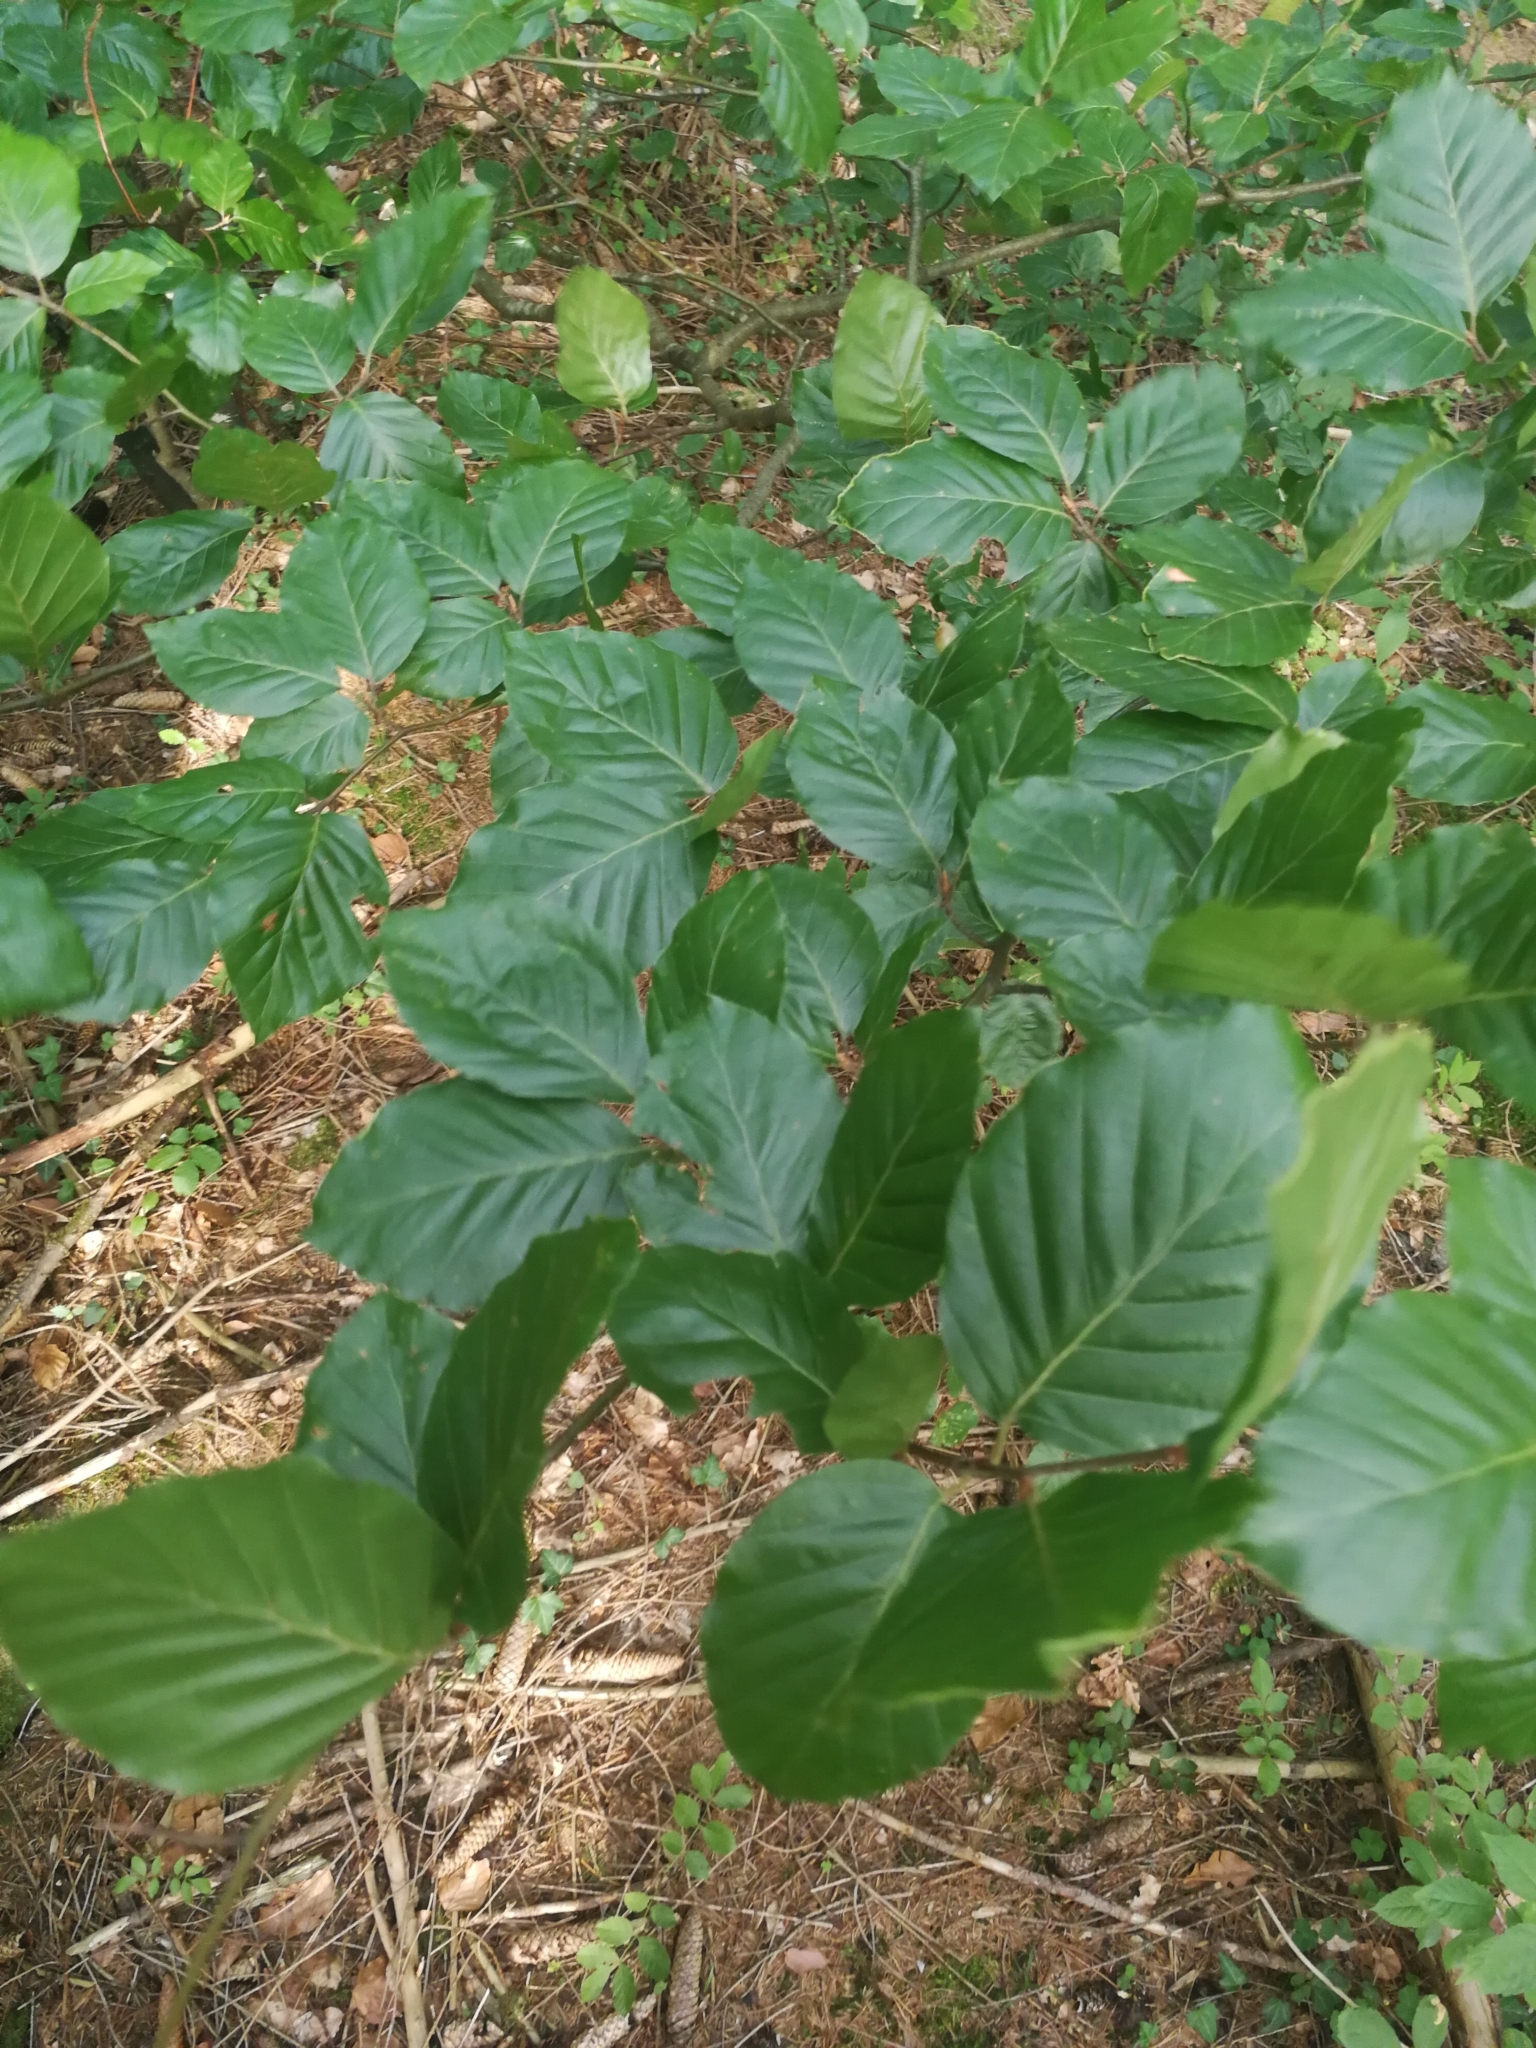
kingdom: Plantae
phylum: Tracheophyta
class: Magnoliopsida
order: Fagales
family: Fagaceae
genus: Fagus
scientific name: Fagus sylvatica
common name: Beech
